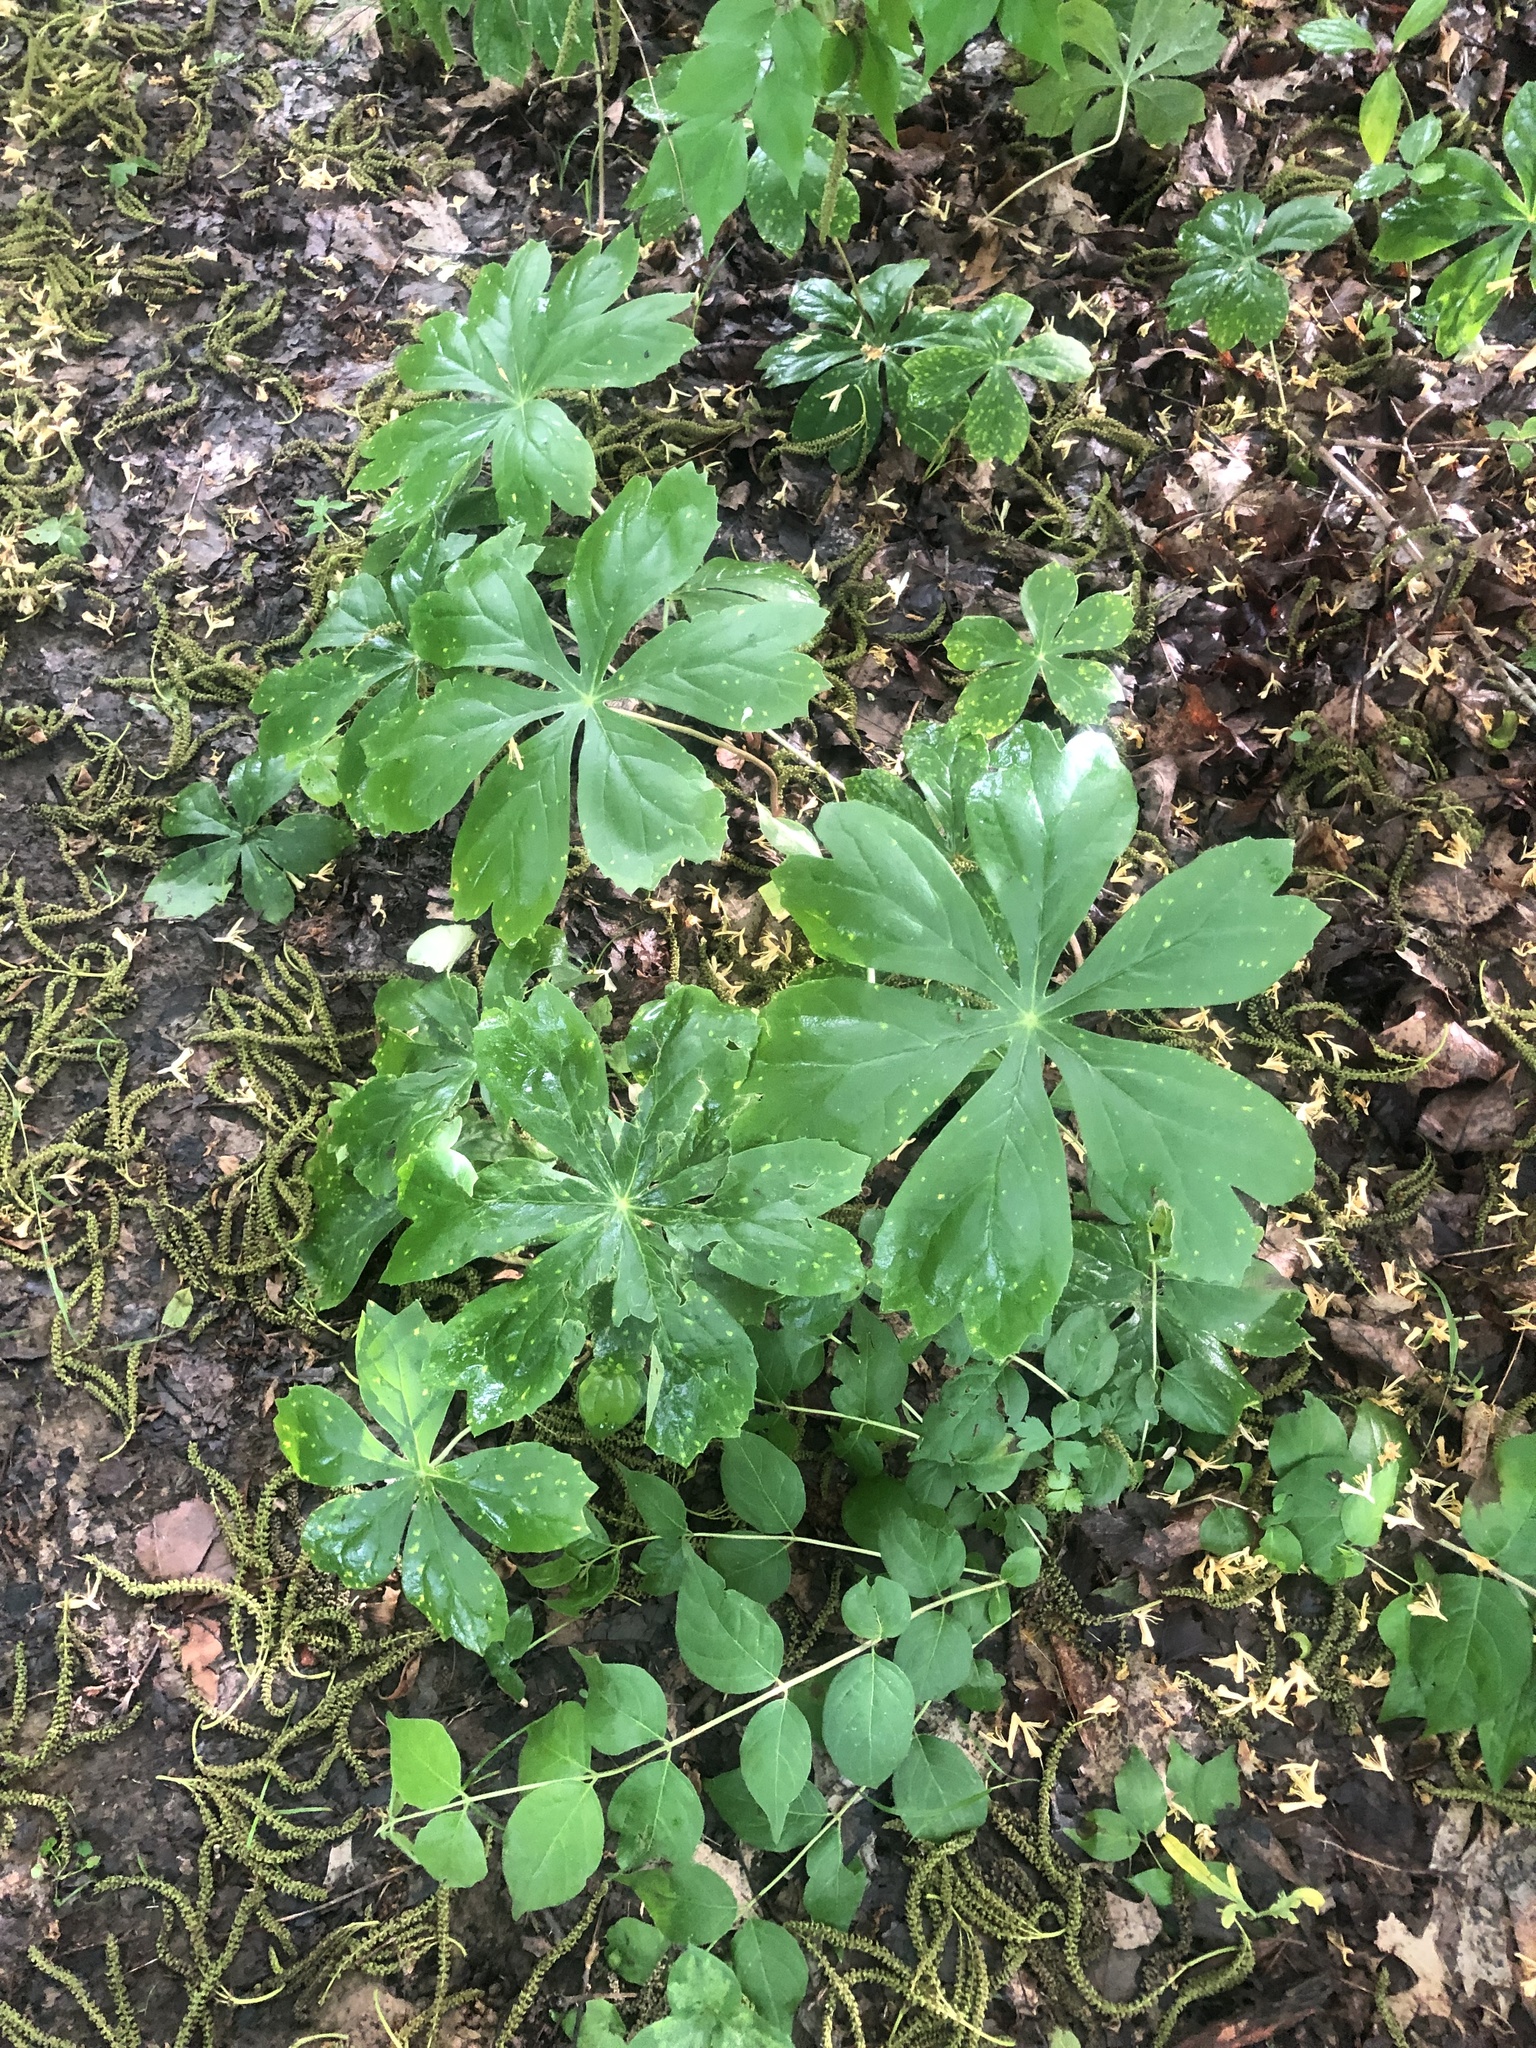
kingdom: Plantae
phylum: Tracheophyta
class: Magnoliopsida
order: Ranunculales
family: Berberidaceae
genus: Podophyllum
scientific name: Podophyllum peltatum
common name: Wild mandrake
